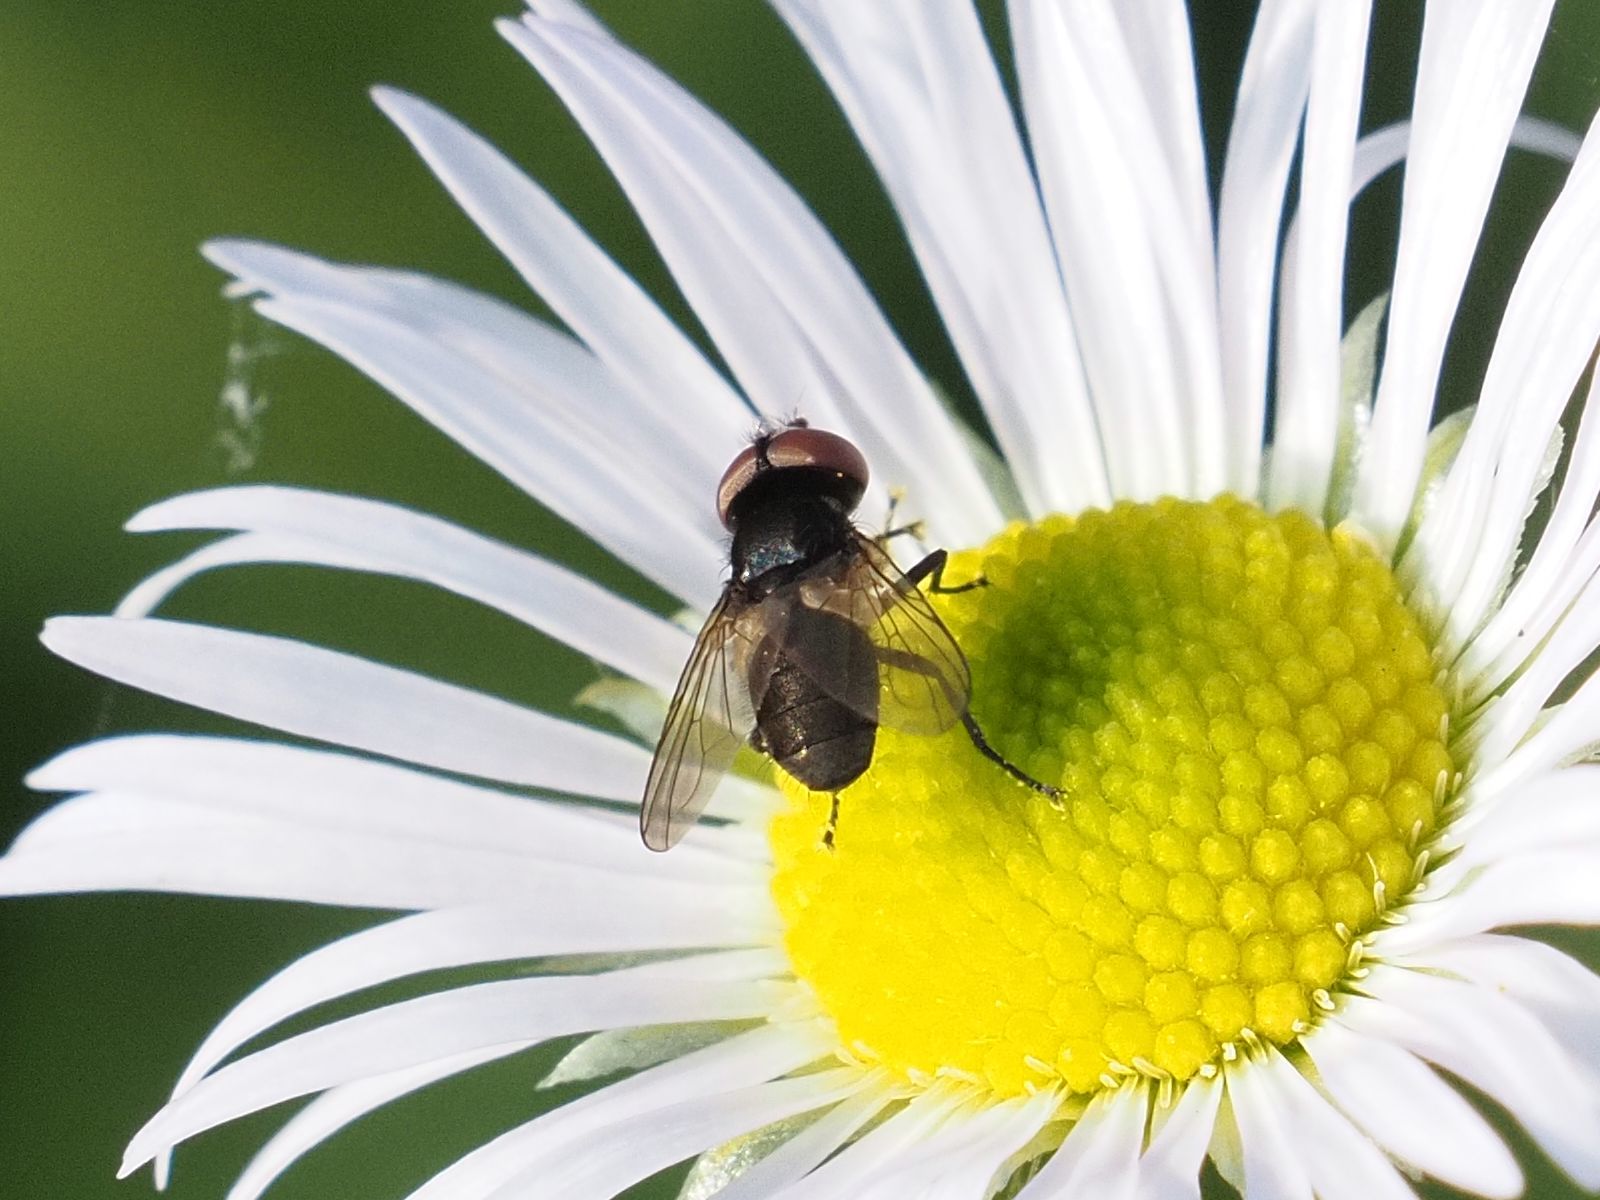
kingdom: Animalia
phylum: Arthropoda
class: Insecta
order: Diptera
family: Tachinidae
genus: Phasia
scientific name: Phasia barbifrons
